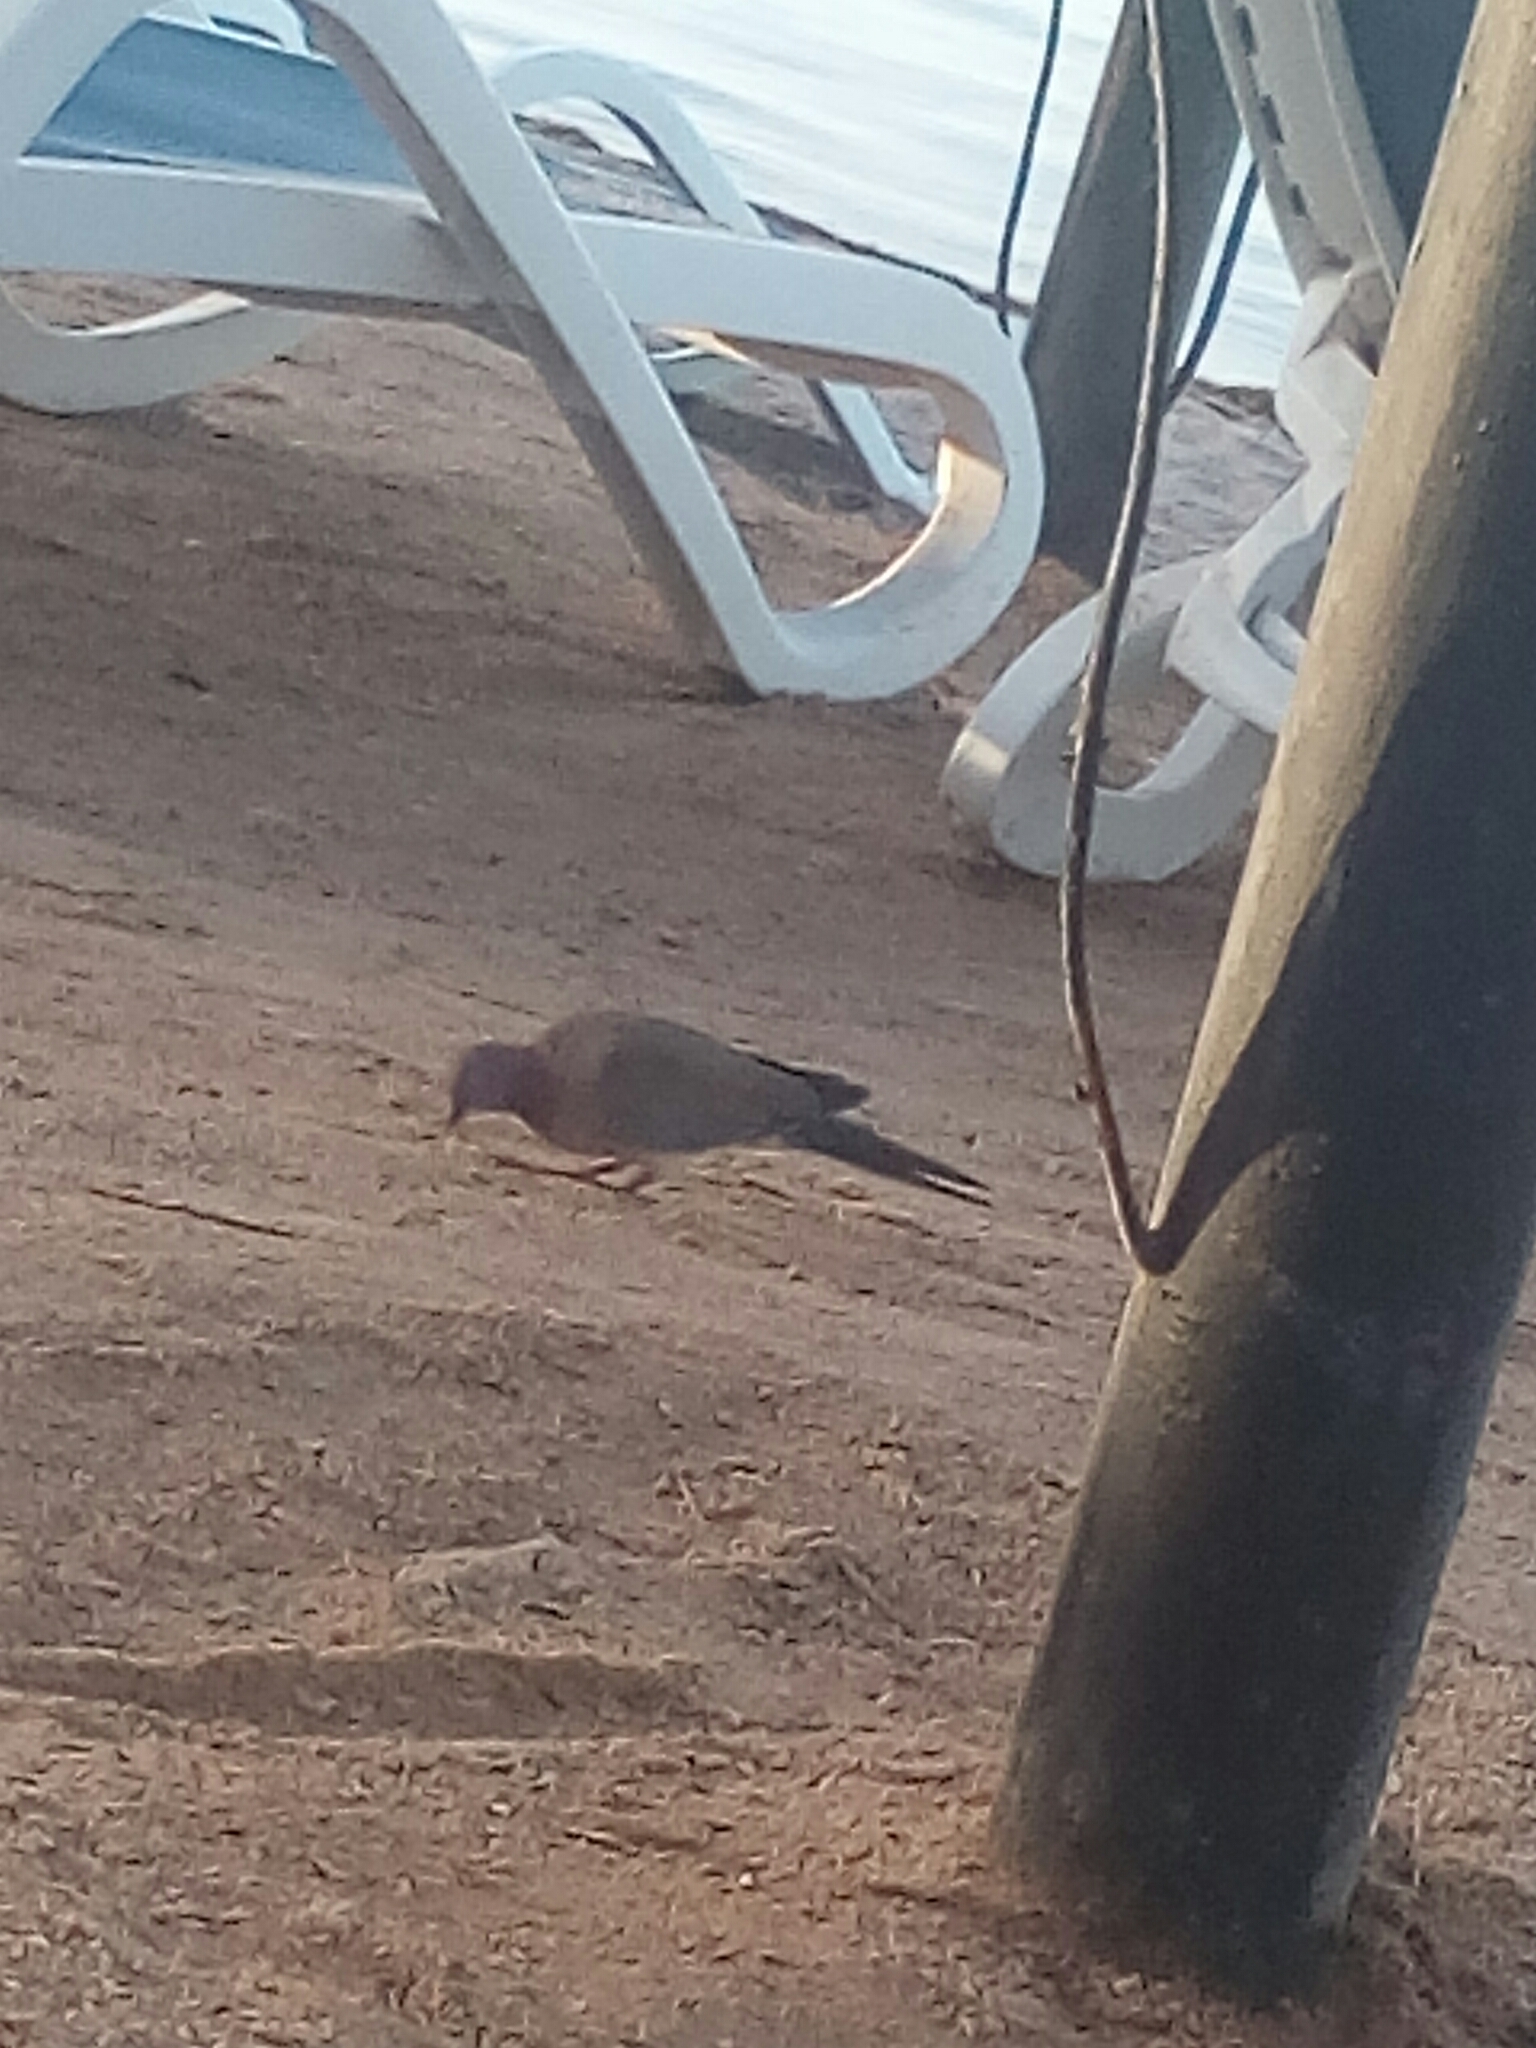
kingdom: Animalia
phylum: Chordata
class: Aves
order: Columbiformes
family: Columbidae
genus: Spilopelia
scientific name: Spilopelia senegalensis
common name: Laughing dove
